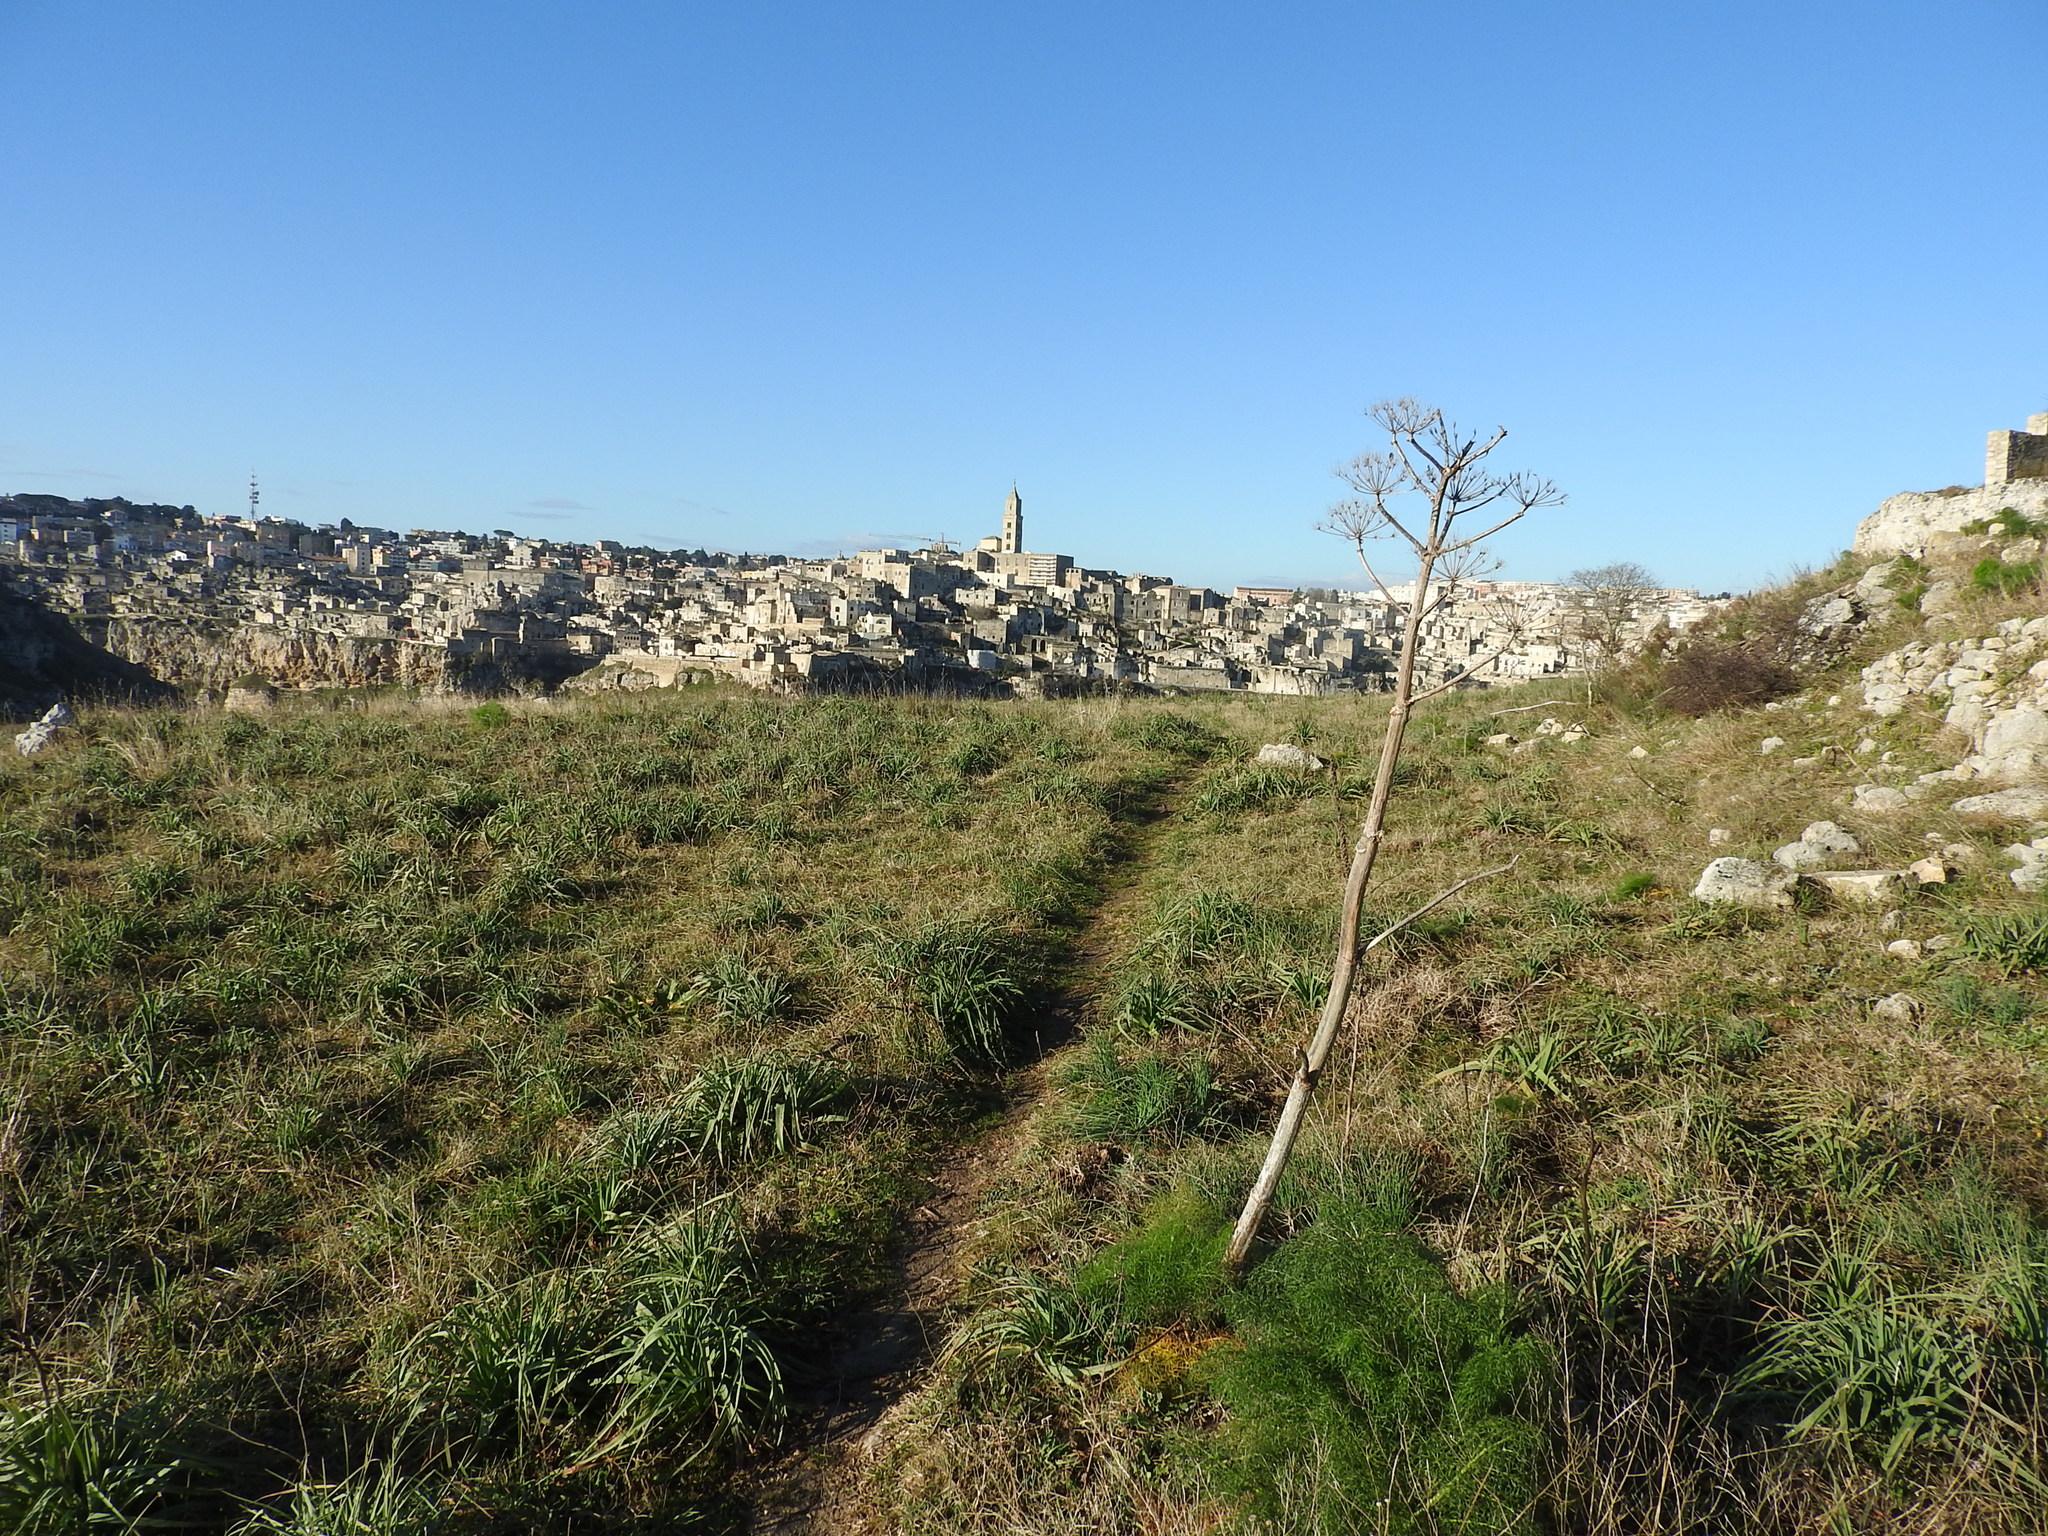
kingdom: Plantae
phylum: Tracheophyta
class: Magnoliopsida
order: Apiales
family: Apiaceae
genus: Ferula
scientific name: Ferula communis
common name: Giant fennel
